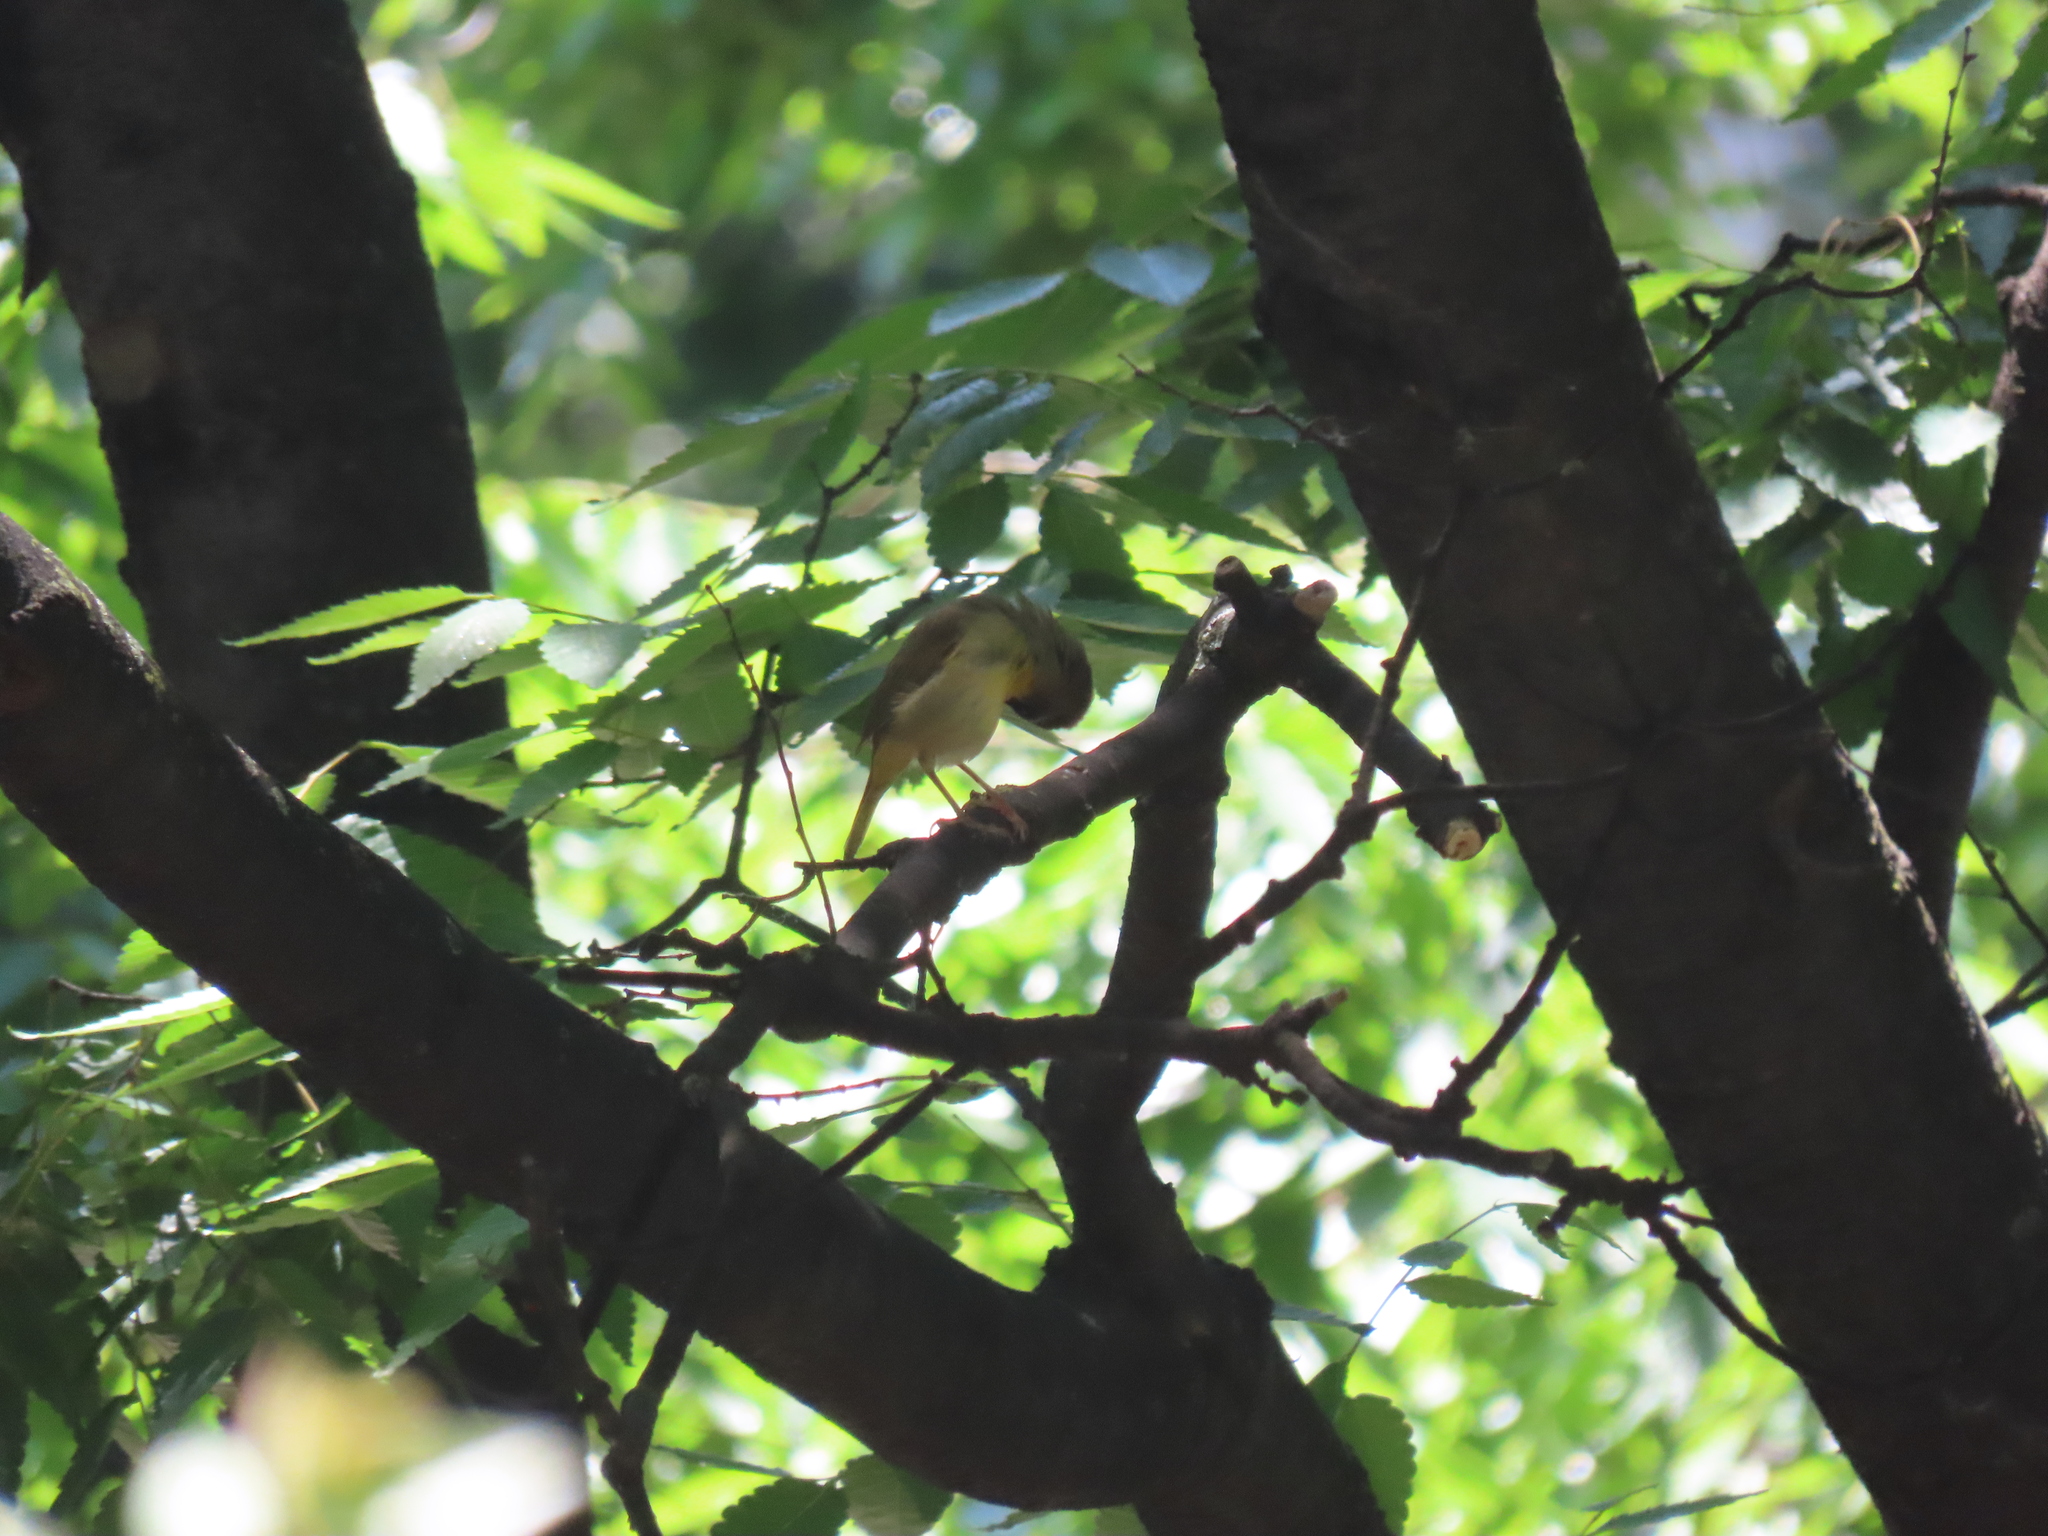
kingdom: Animalia
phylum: Chordata
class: Aves
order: Passeriformes
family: Parulidae
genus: Geothlypis
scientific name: Geothlypis trichas
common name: Common yellowthroat
